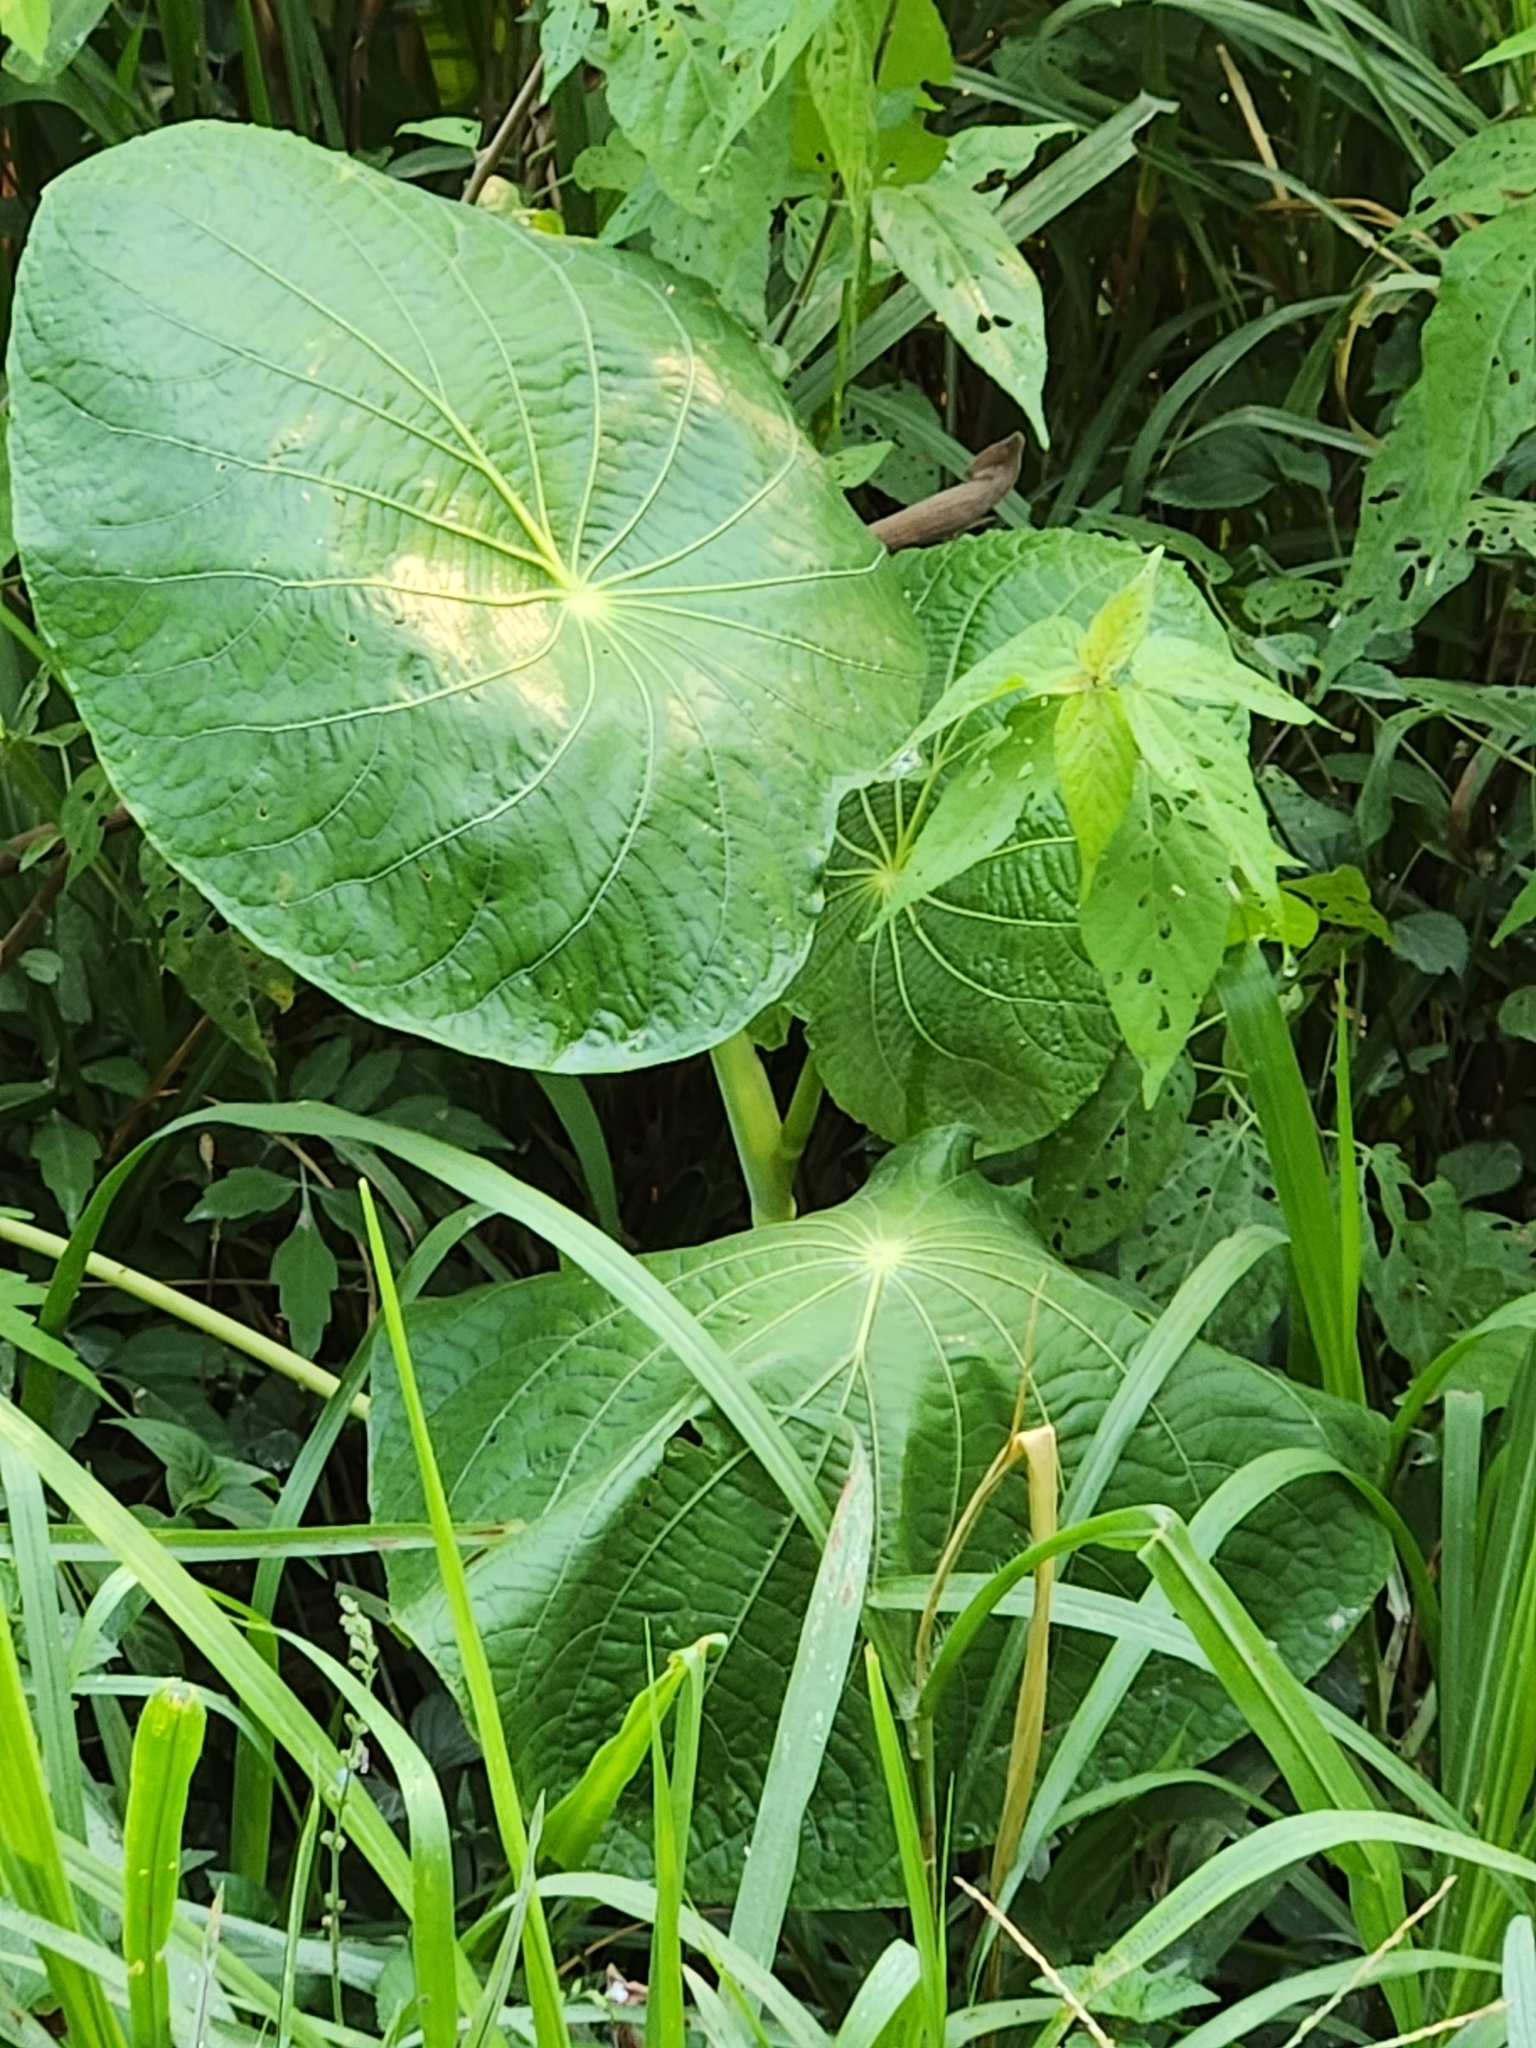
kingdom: Plantae
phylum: Tracheophyta
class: Magnoliopsida
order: Piperales
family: Piperaceae
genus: Piper
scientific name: Piper peltatum
